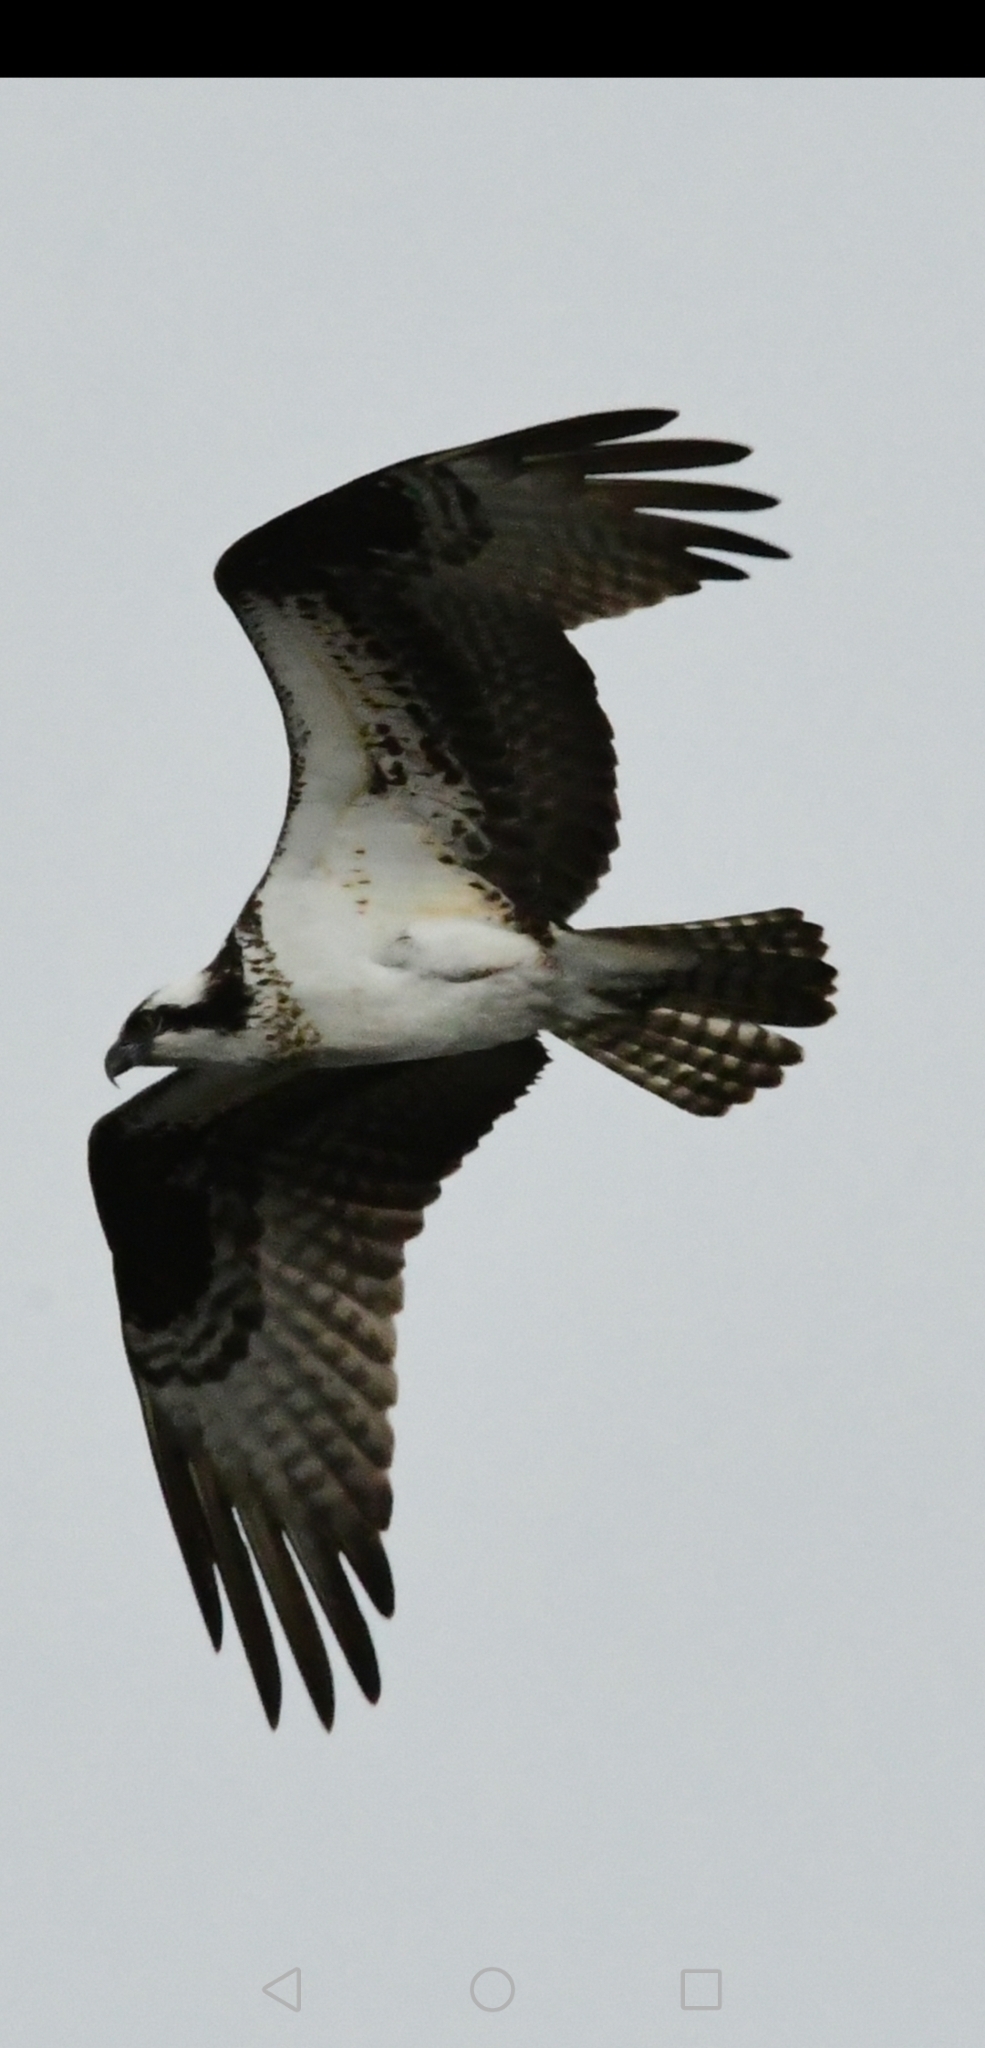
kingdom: Animalia
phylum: Chordata
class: Aves
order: Accipitriformes
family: Pandionidae
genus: Pandion
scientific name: Pandion haliaetus
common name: Osprey
